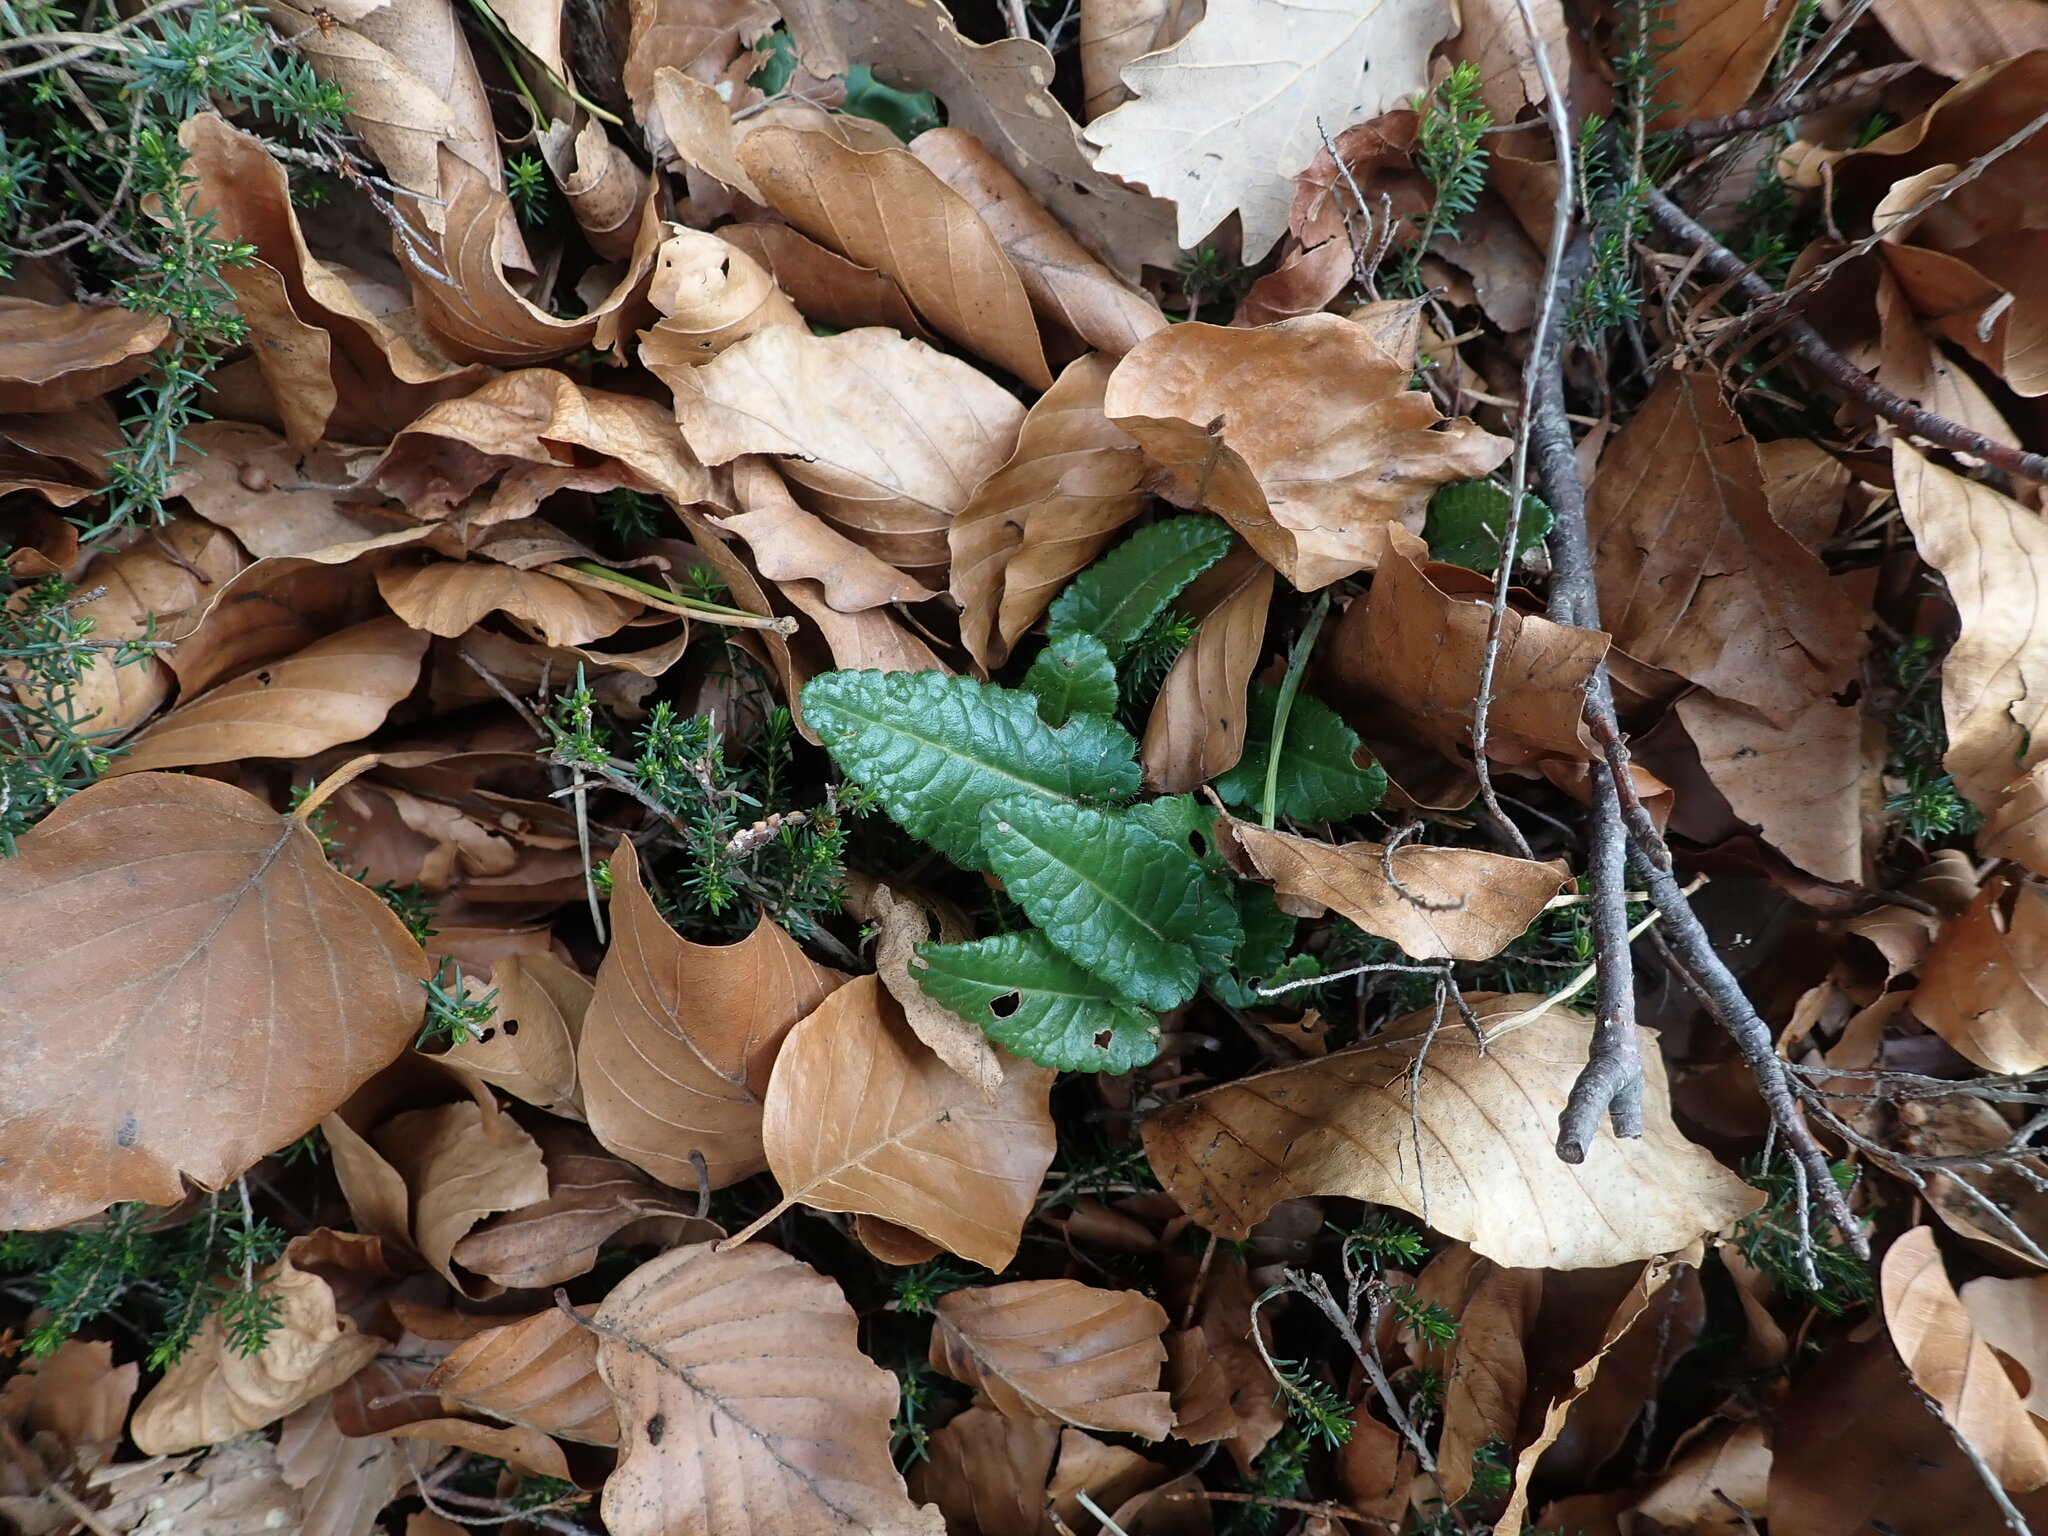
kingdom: Plantae
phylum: Tracheophyta
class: Magnoliopsida
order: Lamiales
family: Lamiaceae
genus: Betonica
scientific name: Betonica officinalis
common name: Bishop's-wort
